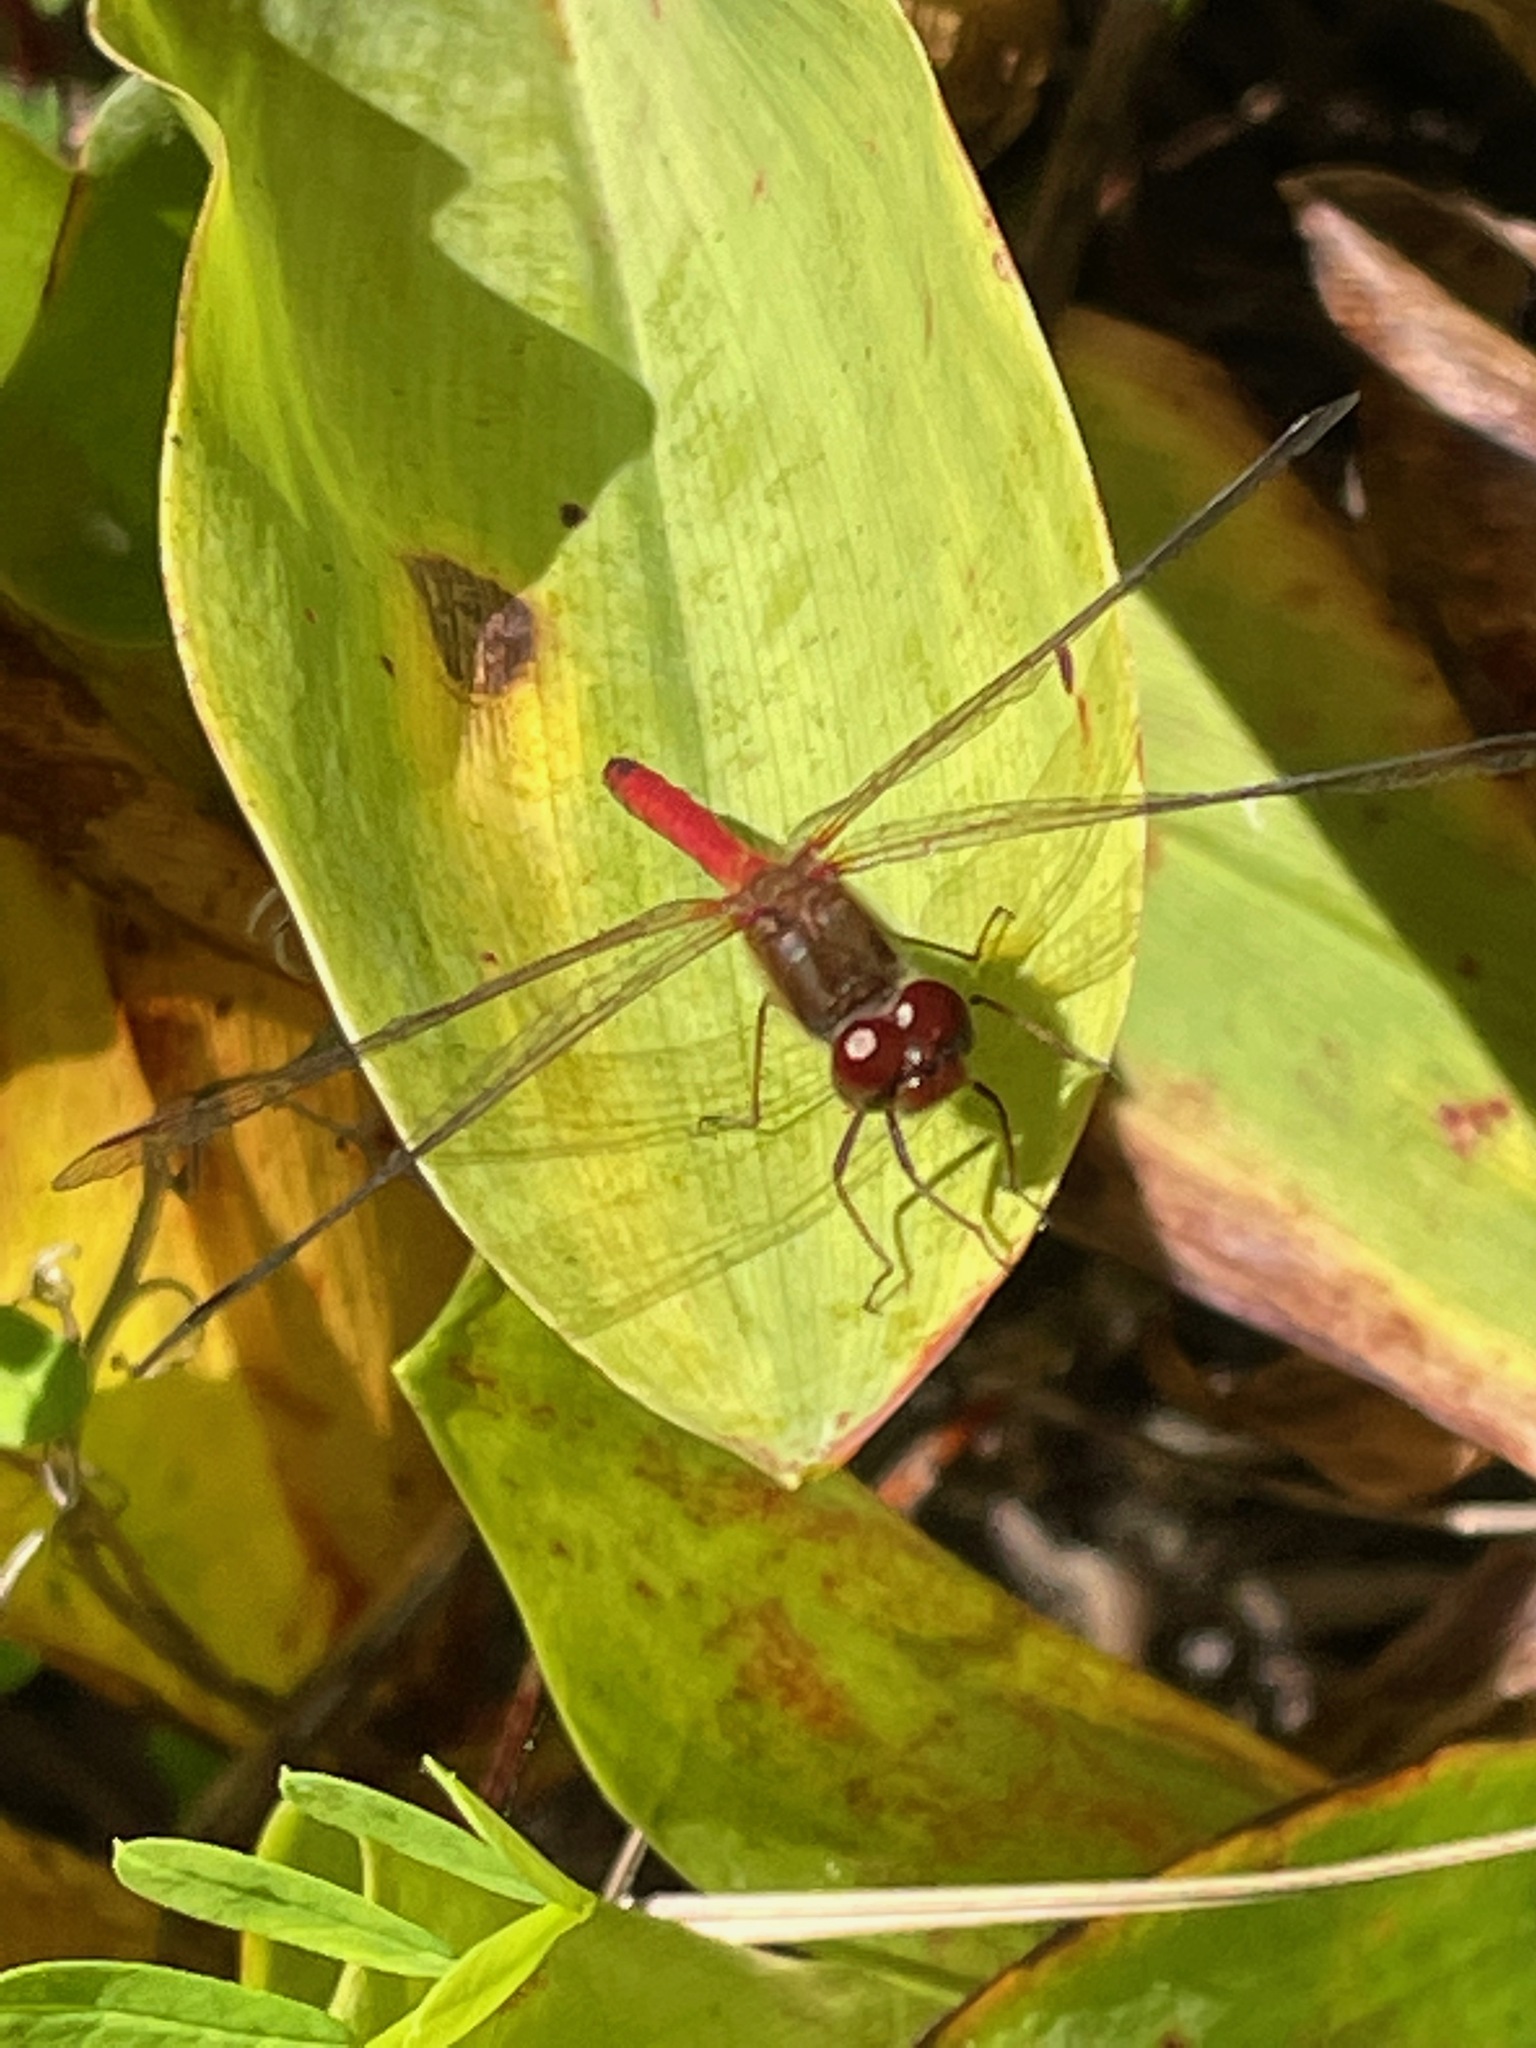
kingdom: Animalia
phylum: Arthropoda
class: Insecta
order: Odonata
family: Libellulidae
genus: Sympetrum
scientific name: Sympetrum vicinum
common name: Autumn meadowhawk
